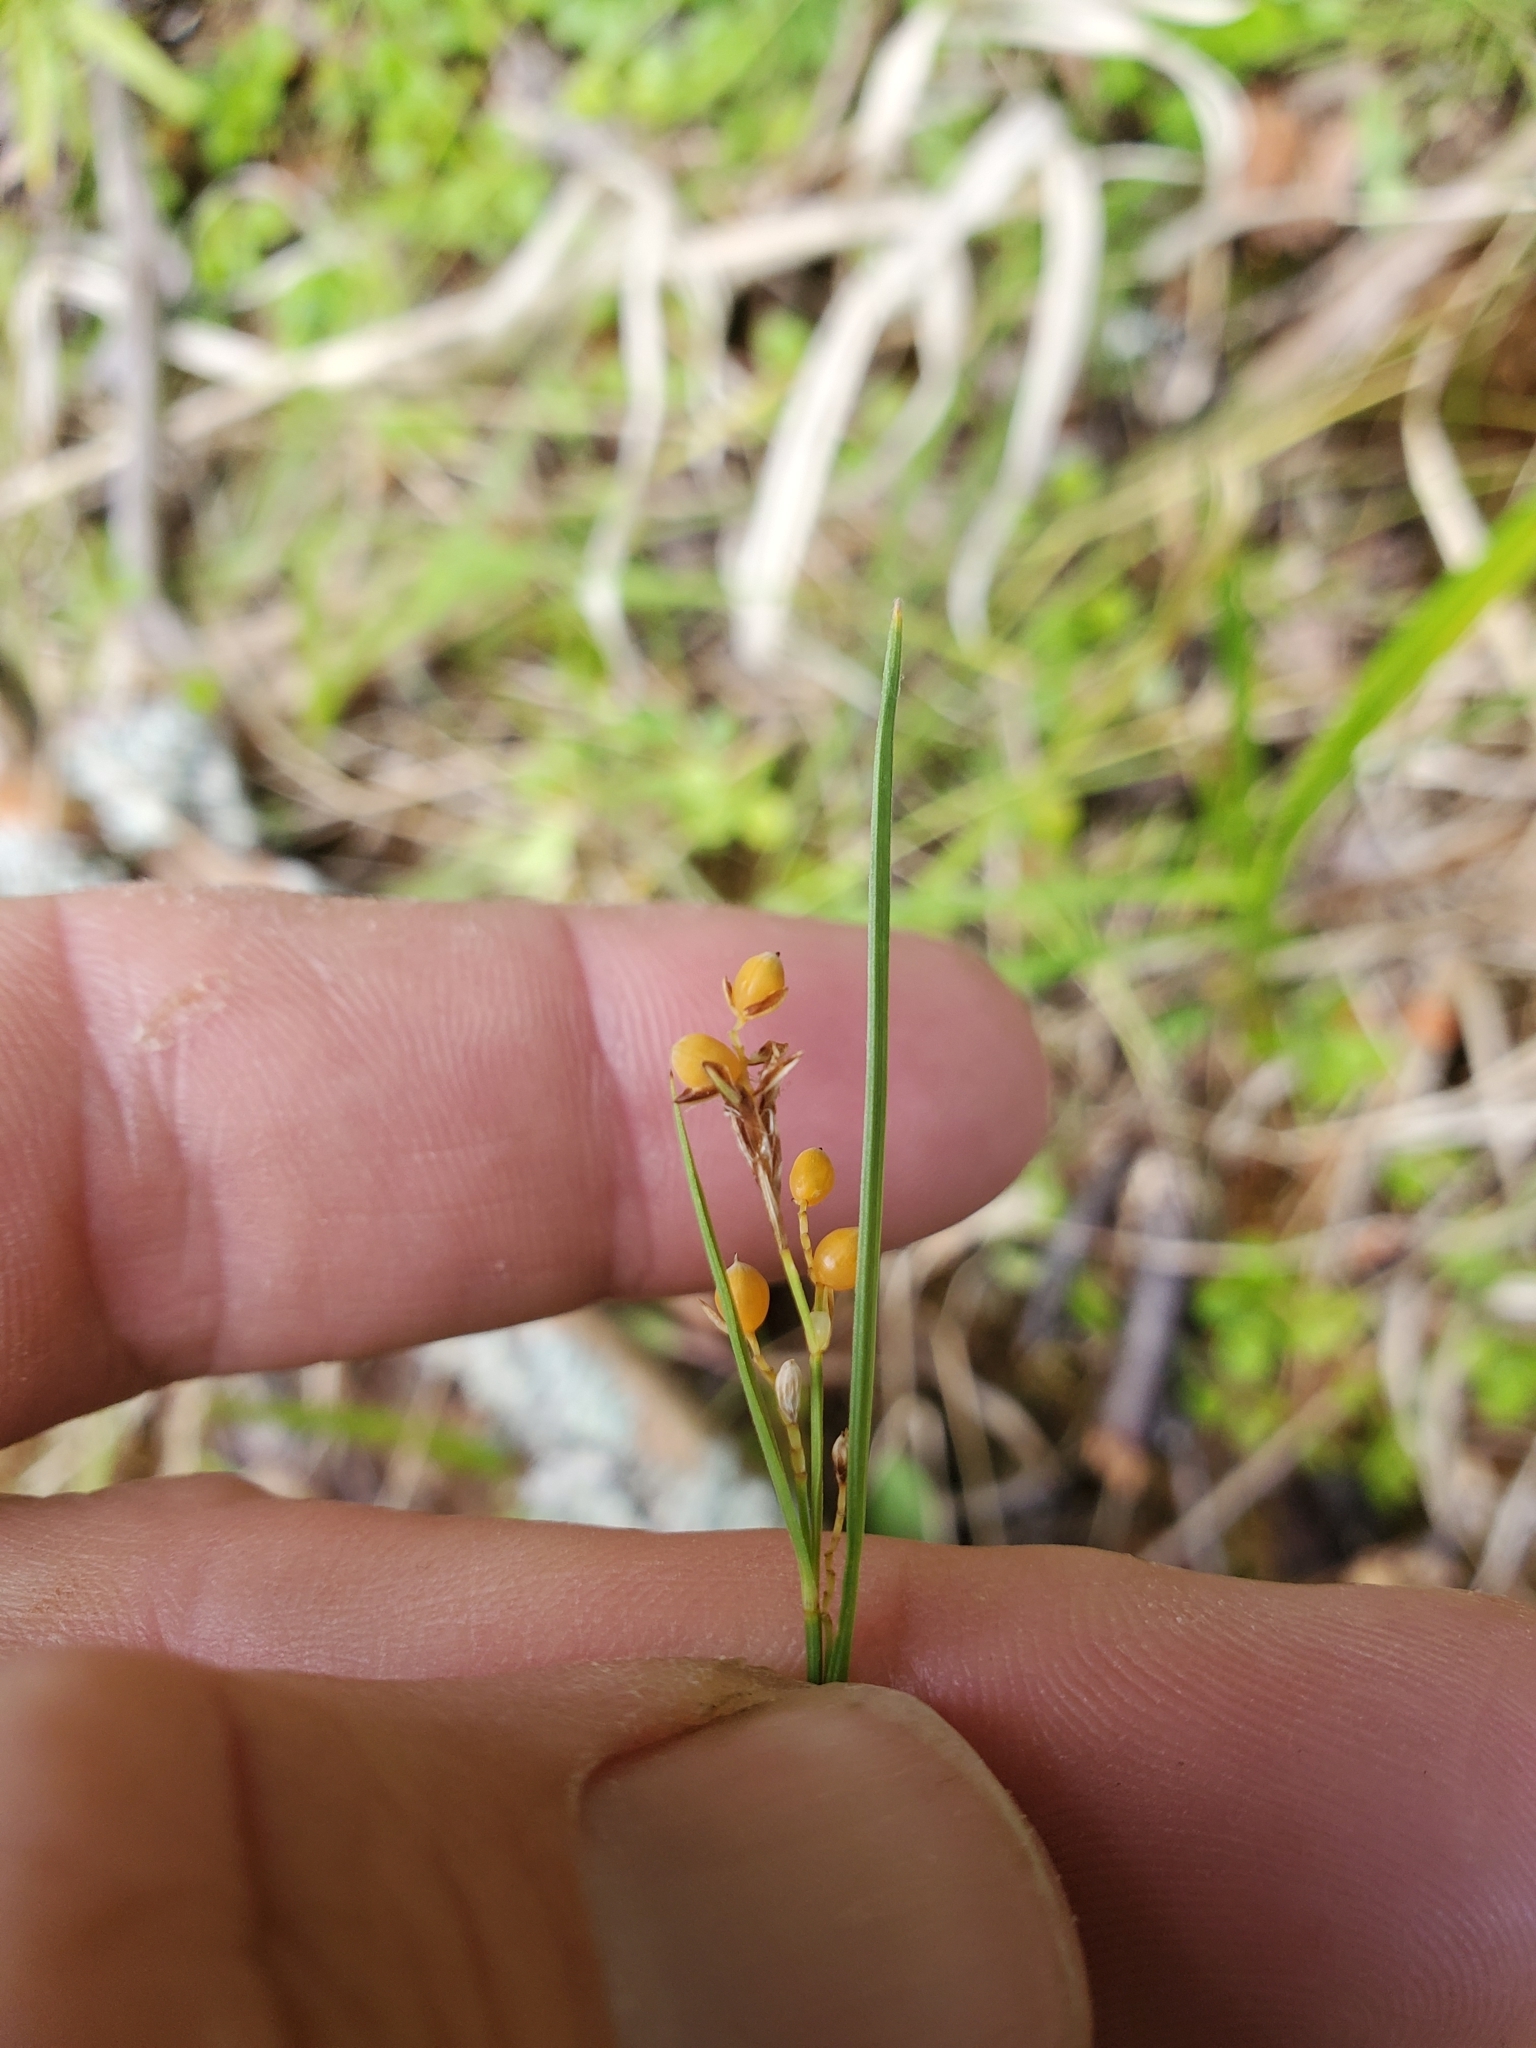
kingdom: Plantae
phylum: Tracheophyta
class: Liliopsida
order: Poales
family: Cyperaceae
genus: Carex
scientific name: Carex aurea
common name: Golden sedge
